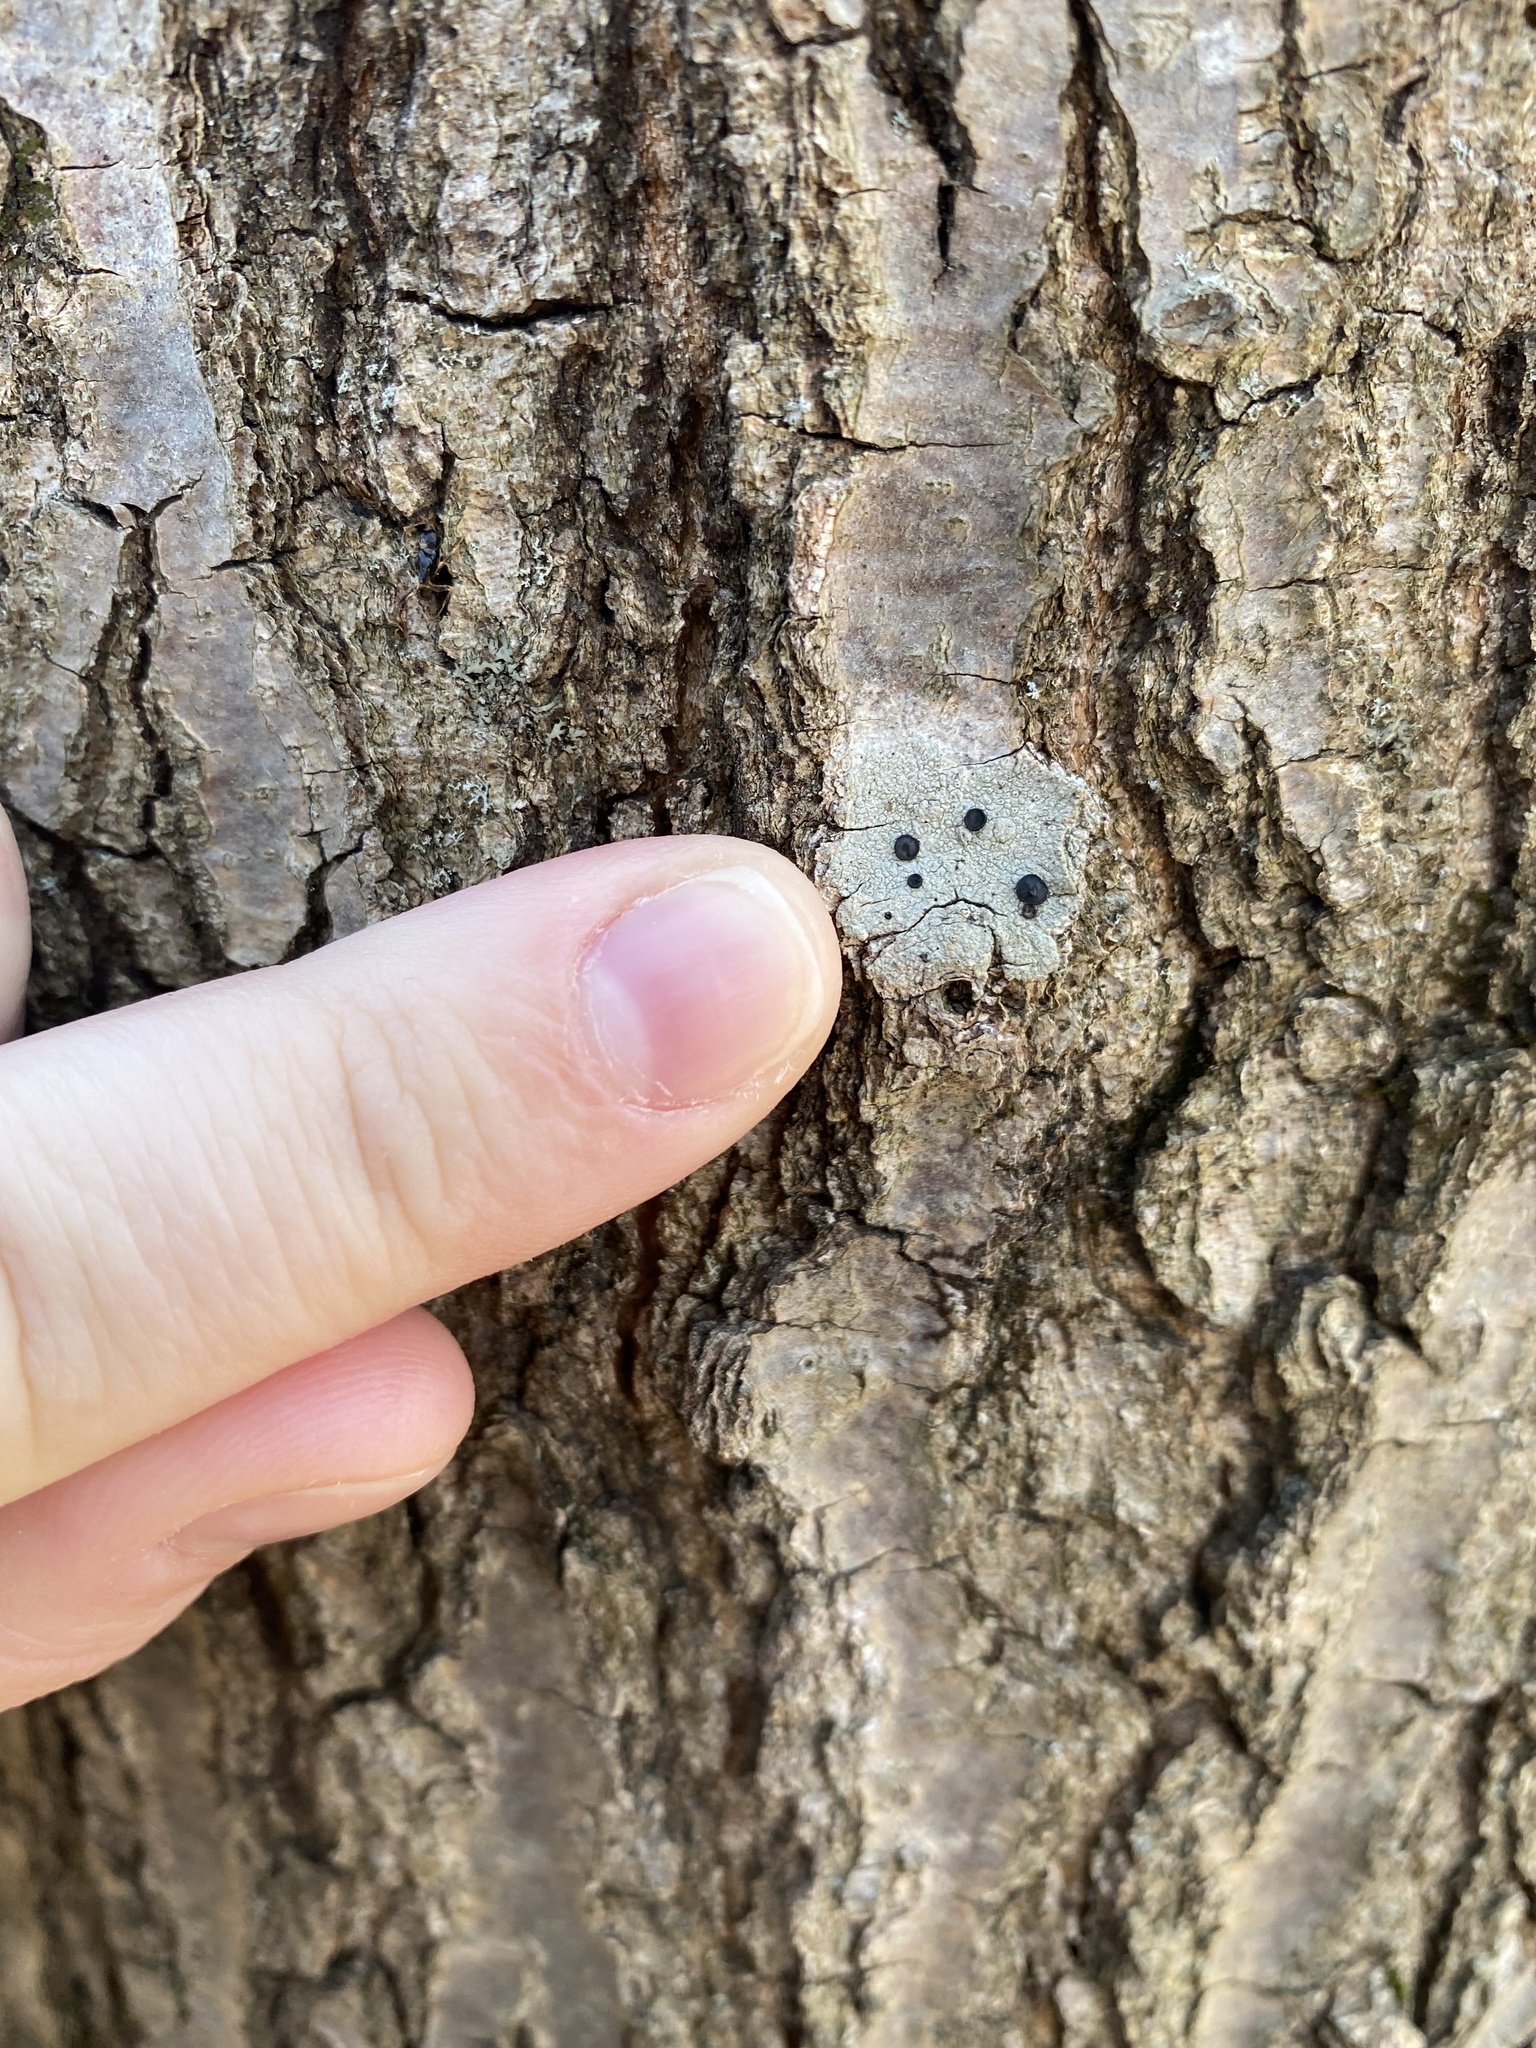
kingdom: Fungi
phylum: Ascomycota
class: Lecanoromycetes
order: Caliciales
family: Caliciaceae
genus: Buellia
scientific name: Buellia erubescens
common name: Common button lichen
